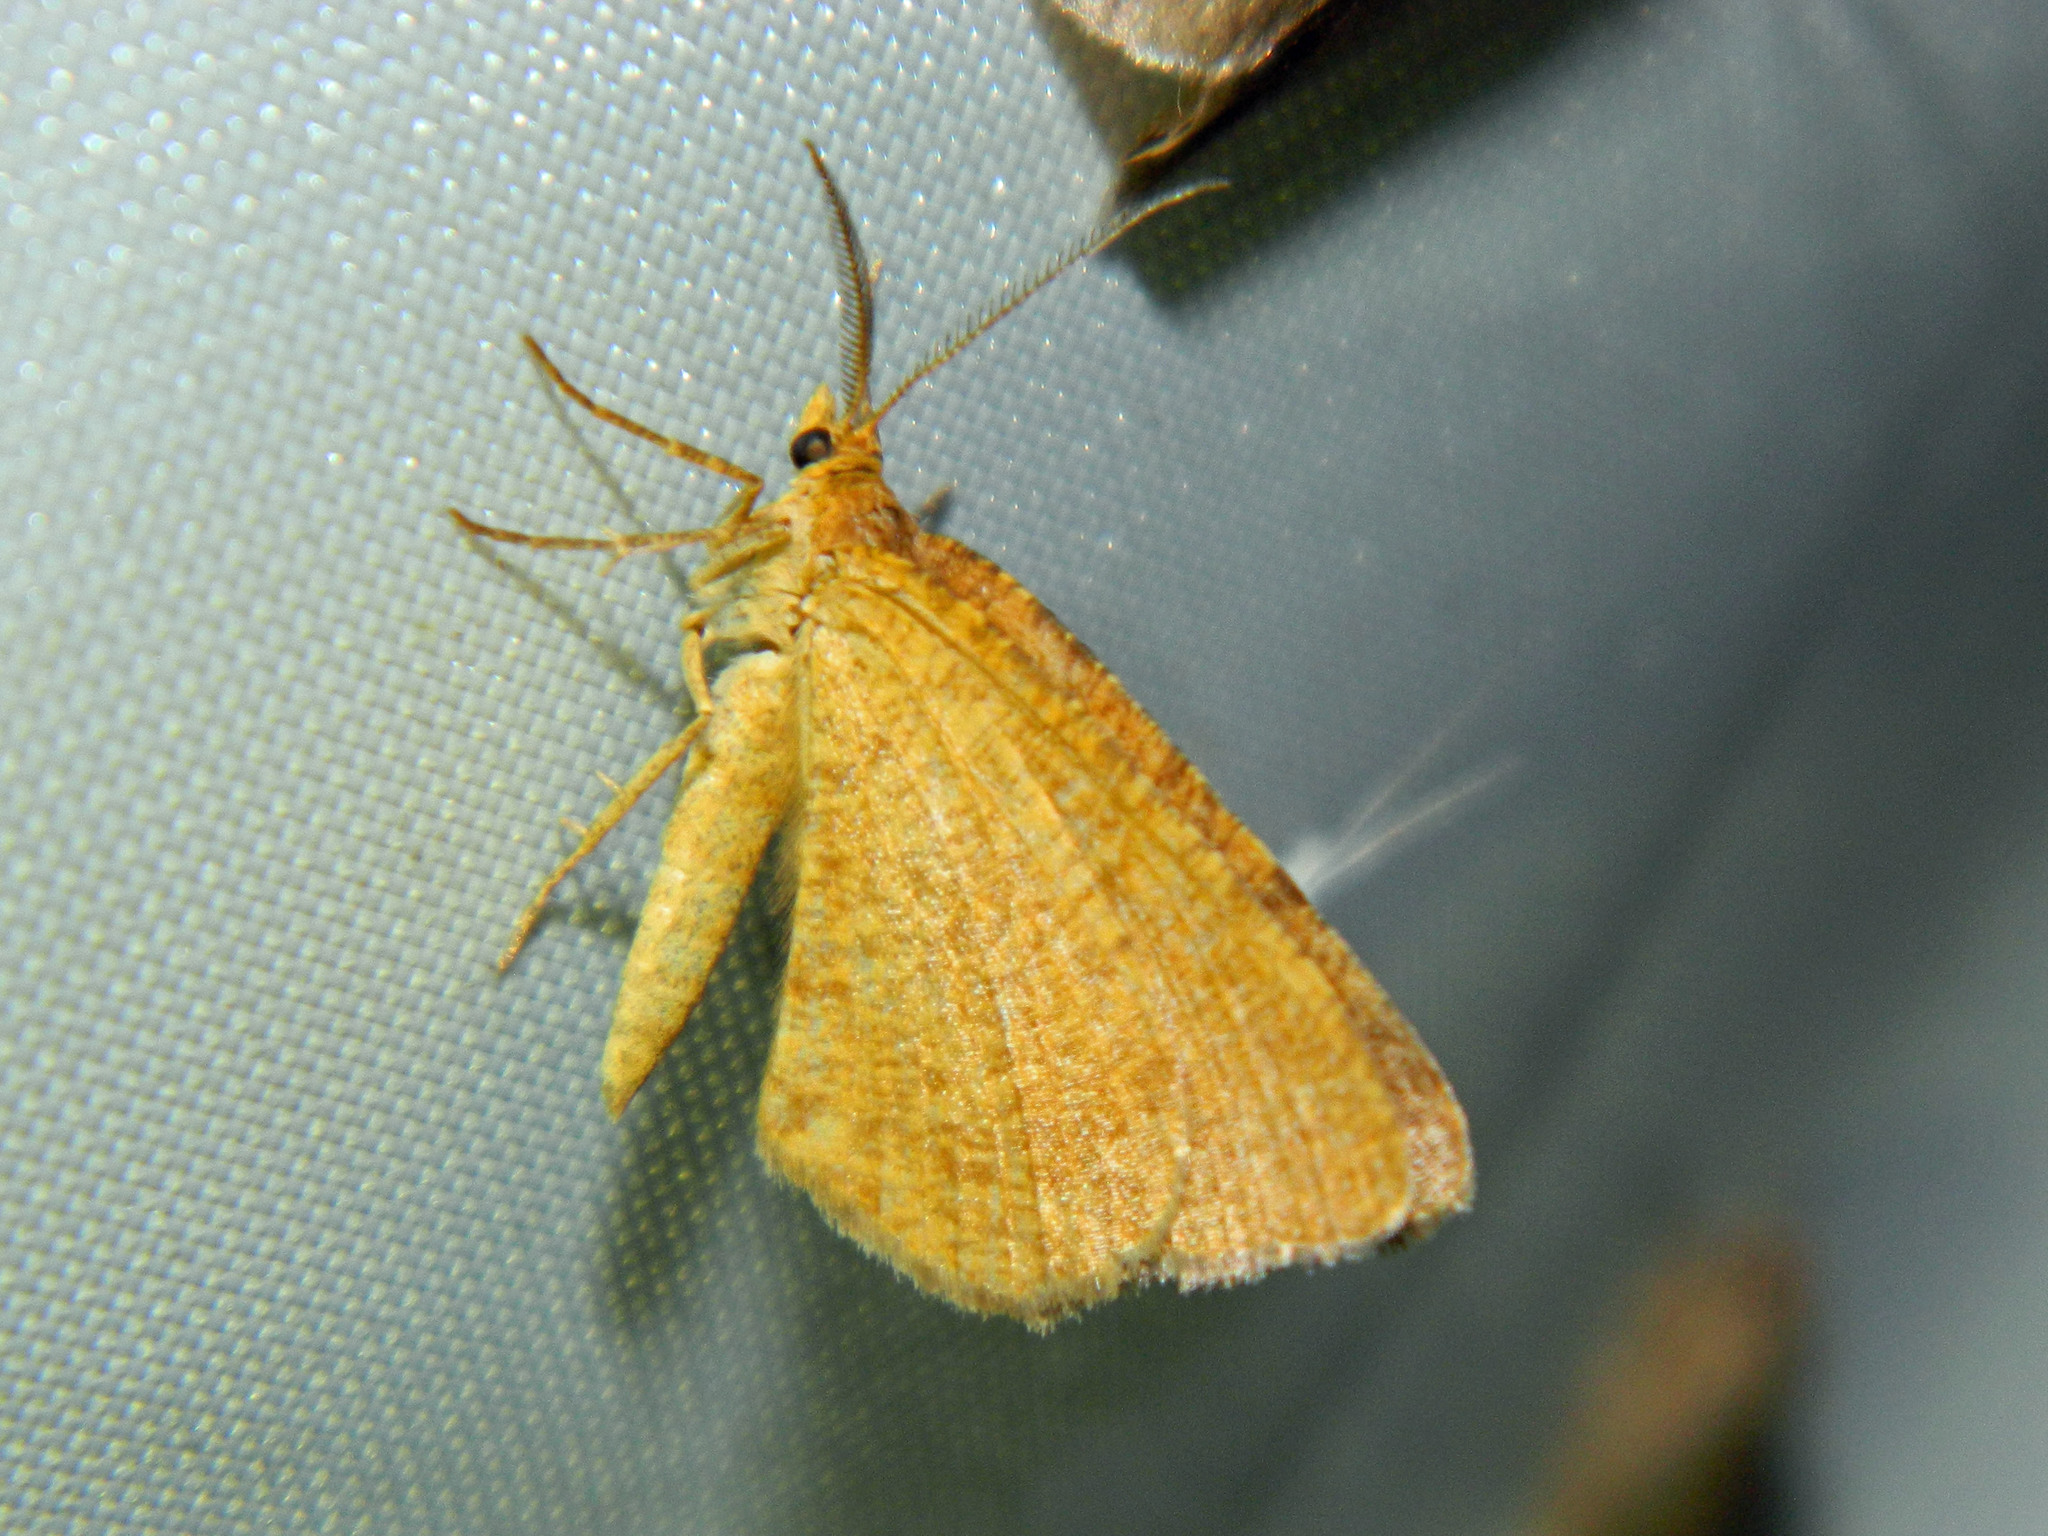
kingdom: Animalia
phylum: Arthropoda
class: Insecta
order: Lepidoptera
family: Geometridae
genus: Macaria
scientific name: Macaria brunneata
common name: Rannoch looper
